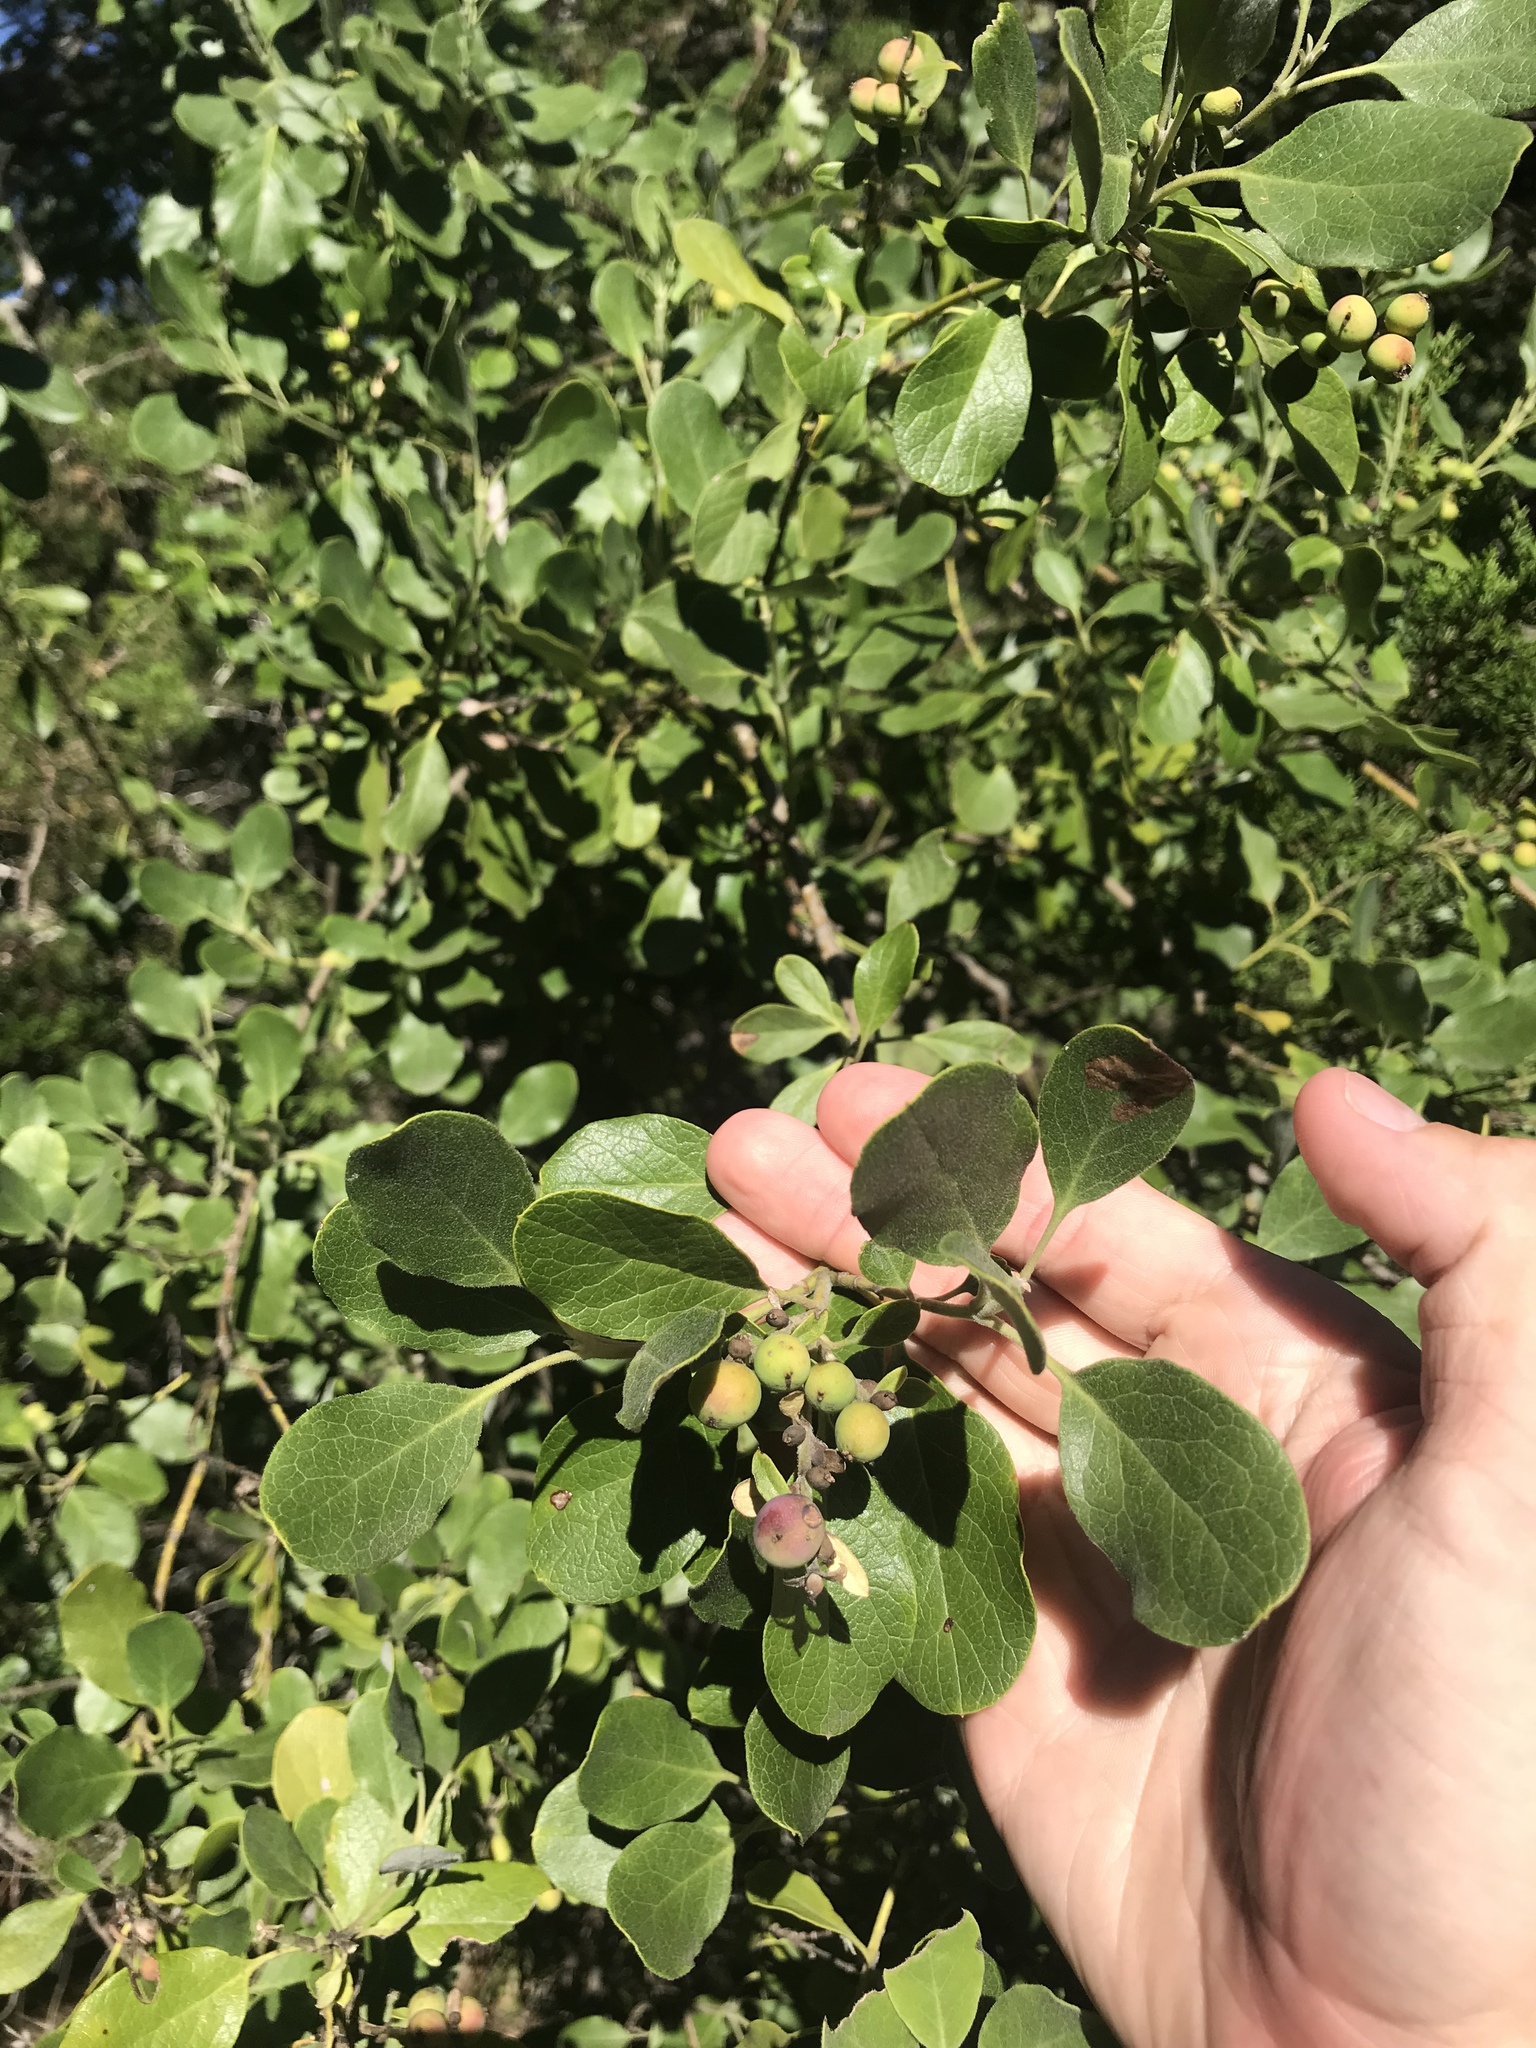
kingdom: Plantae
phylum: Tracheophyta
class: Magnoliopsida
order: Garryales
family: Garryaceae
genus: Garrya
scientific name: Garrya lindheimeri
